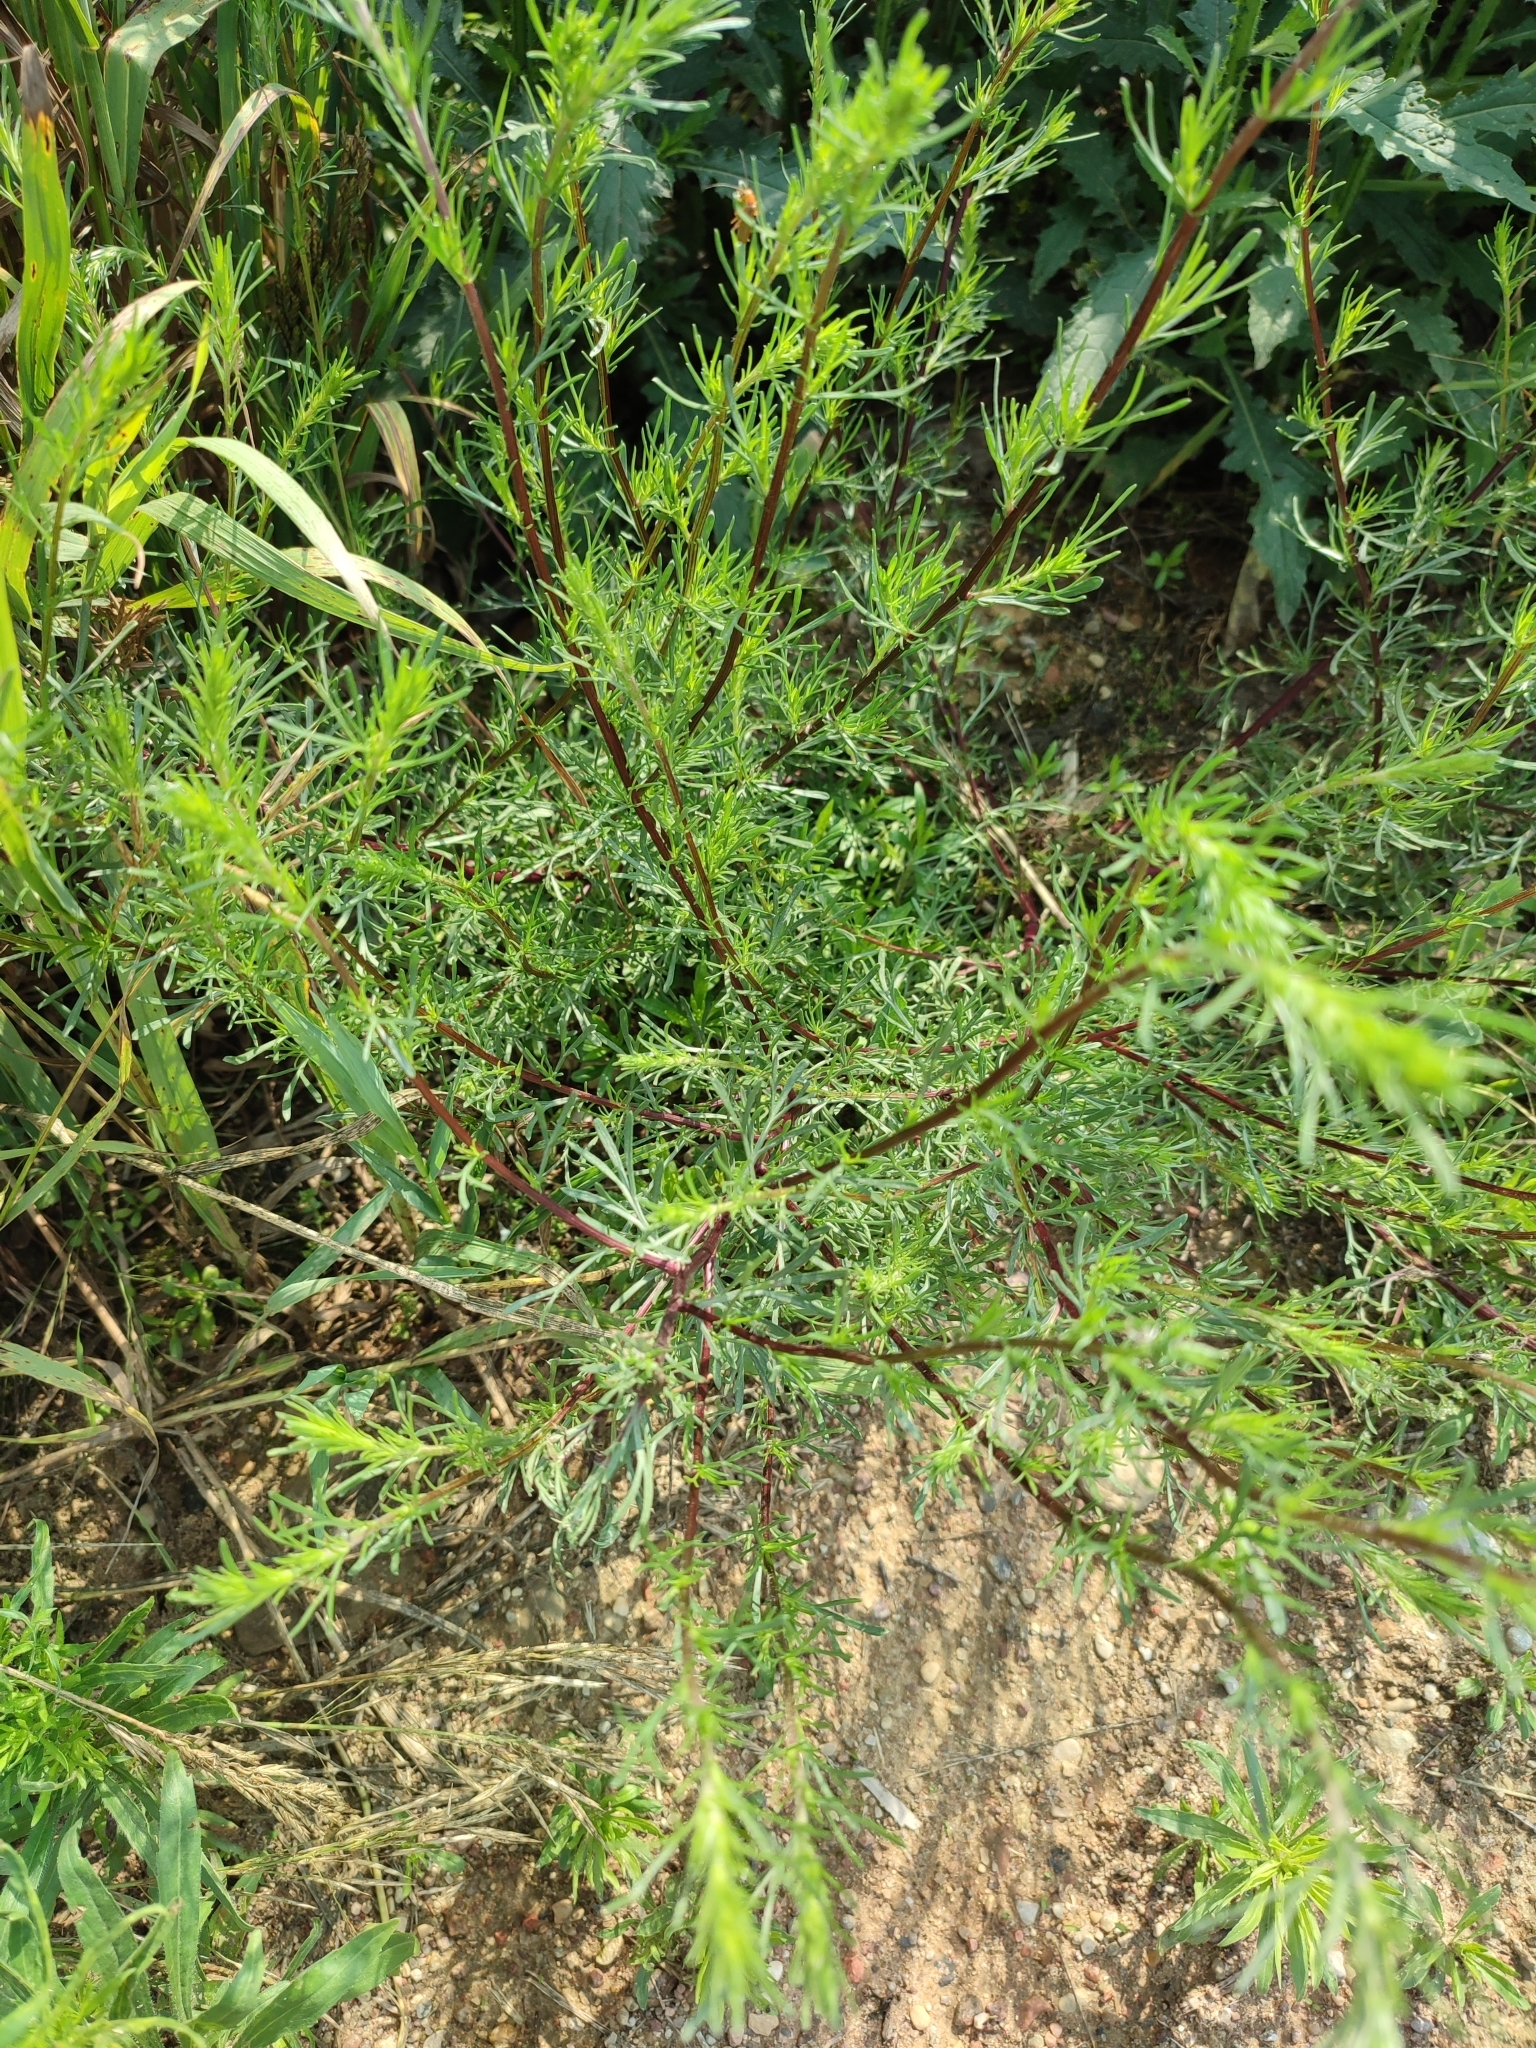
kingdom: Plantae
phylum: Tracheophyta
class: Magnoliopsida
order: Asterales
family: Asteraceae
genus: Artemisia
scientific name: Artemisia campestris
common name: Field wormwood
